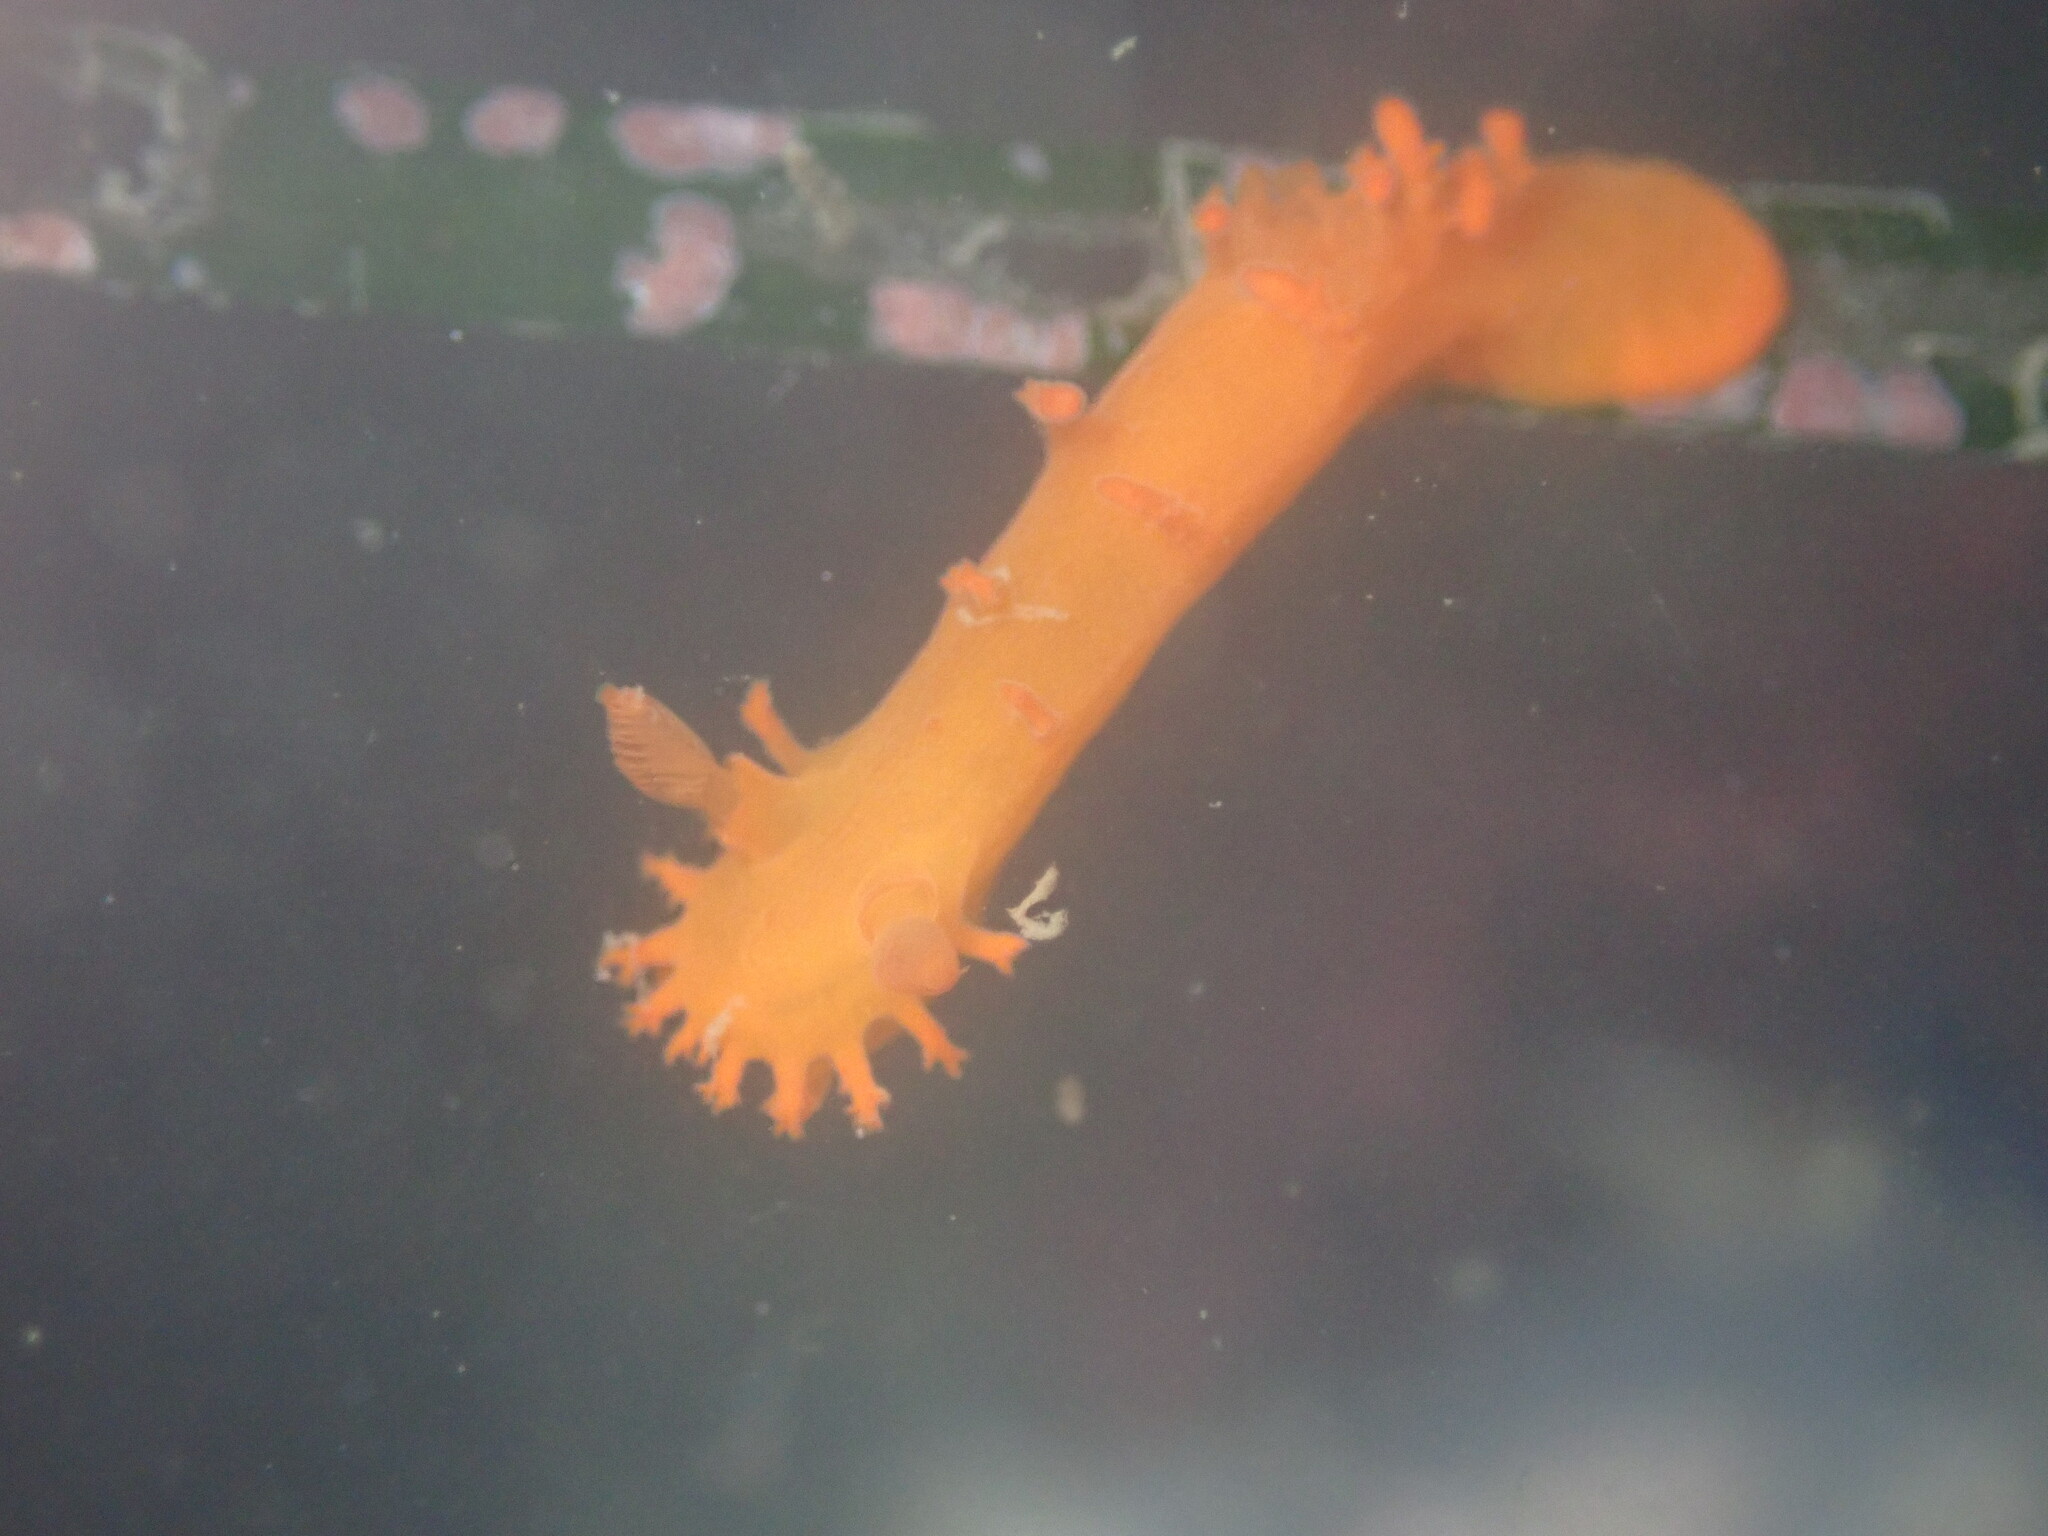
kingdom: Animalia
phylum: Mollusca
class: Gastropoda
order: Nudibranchia
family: Polyceridae
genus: Triopha
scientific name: Triopha maculata
